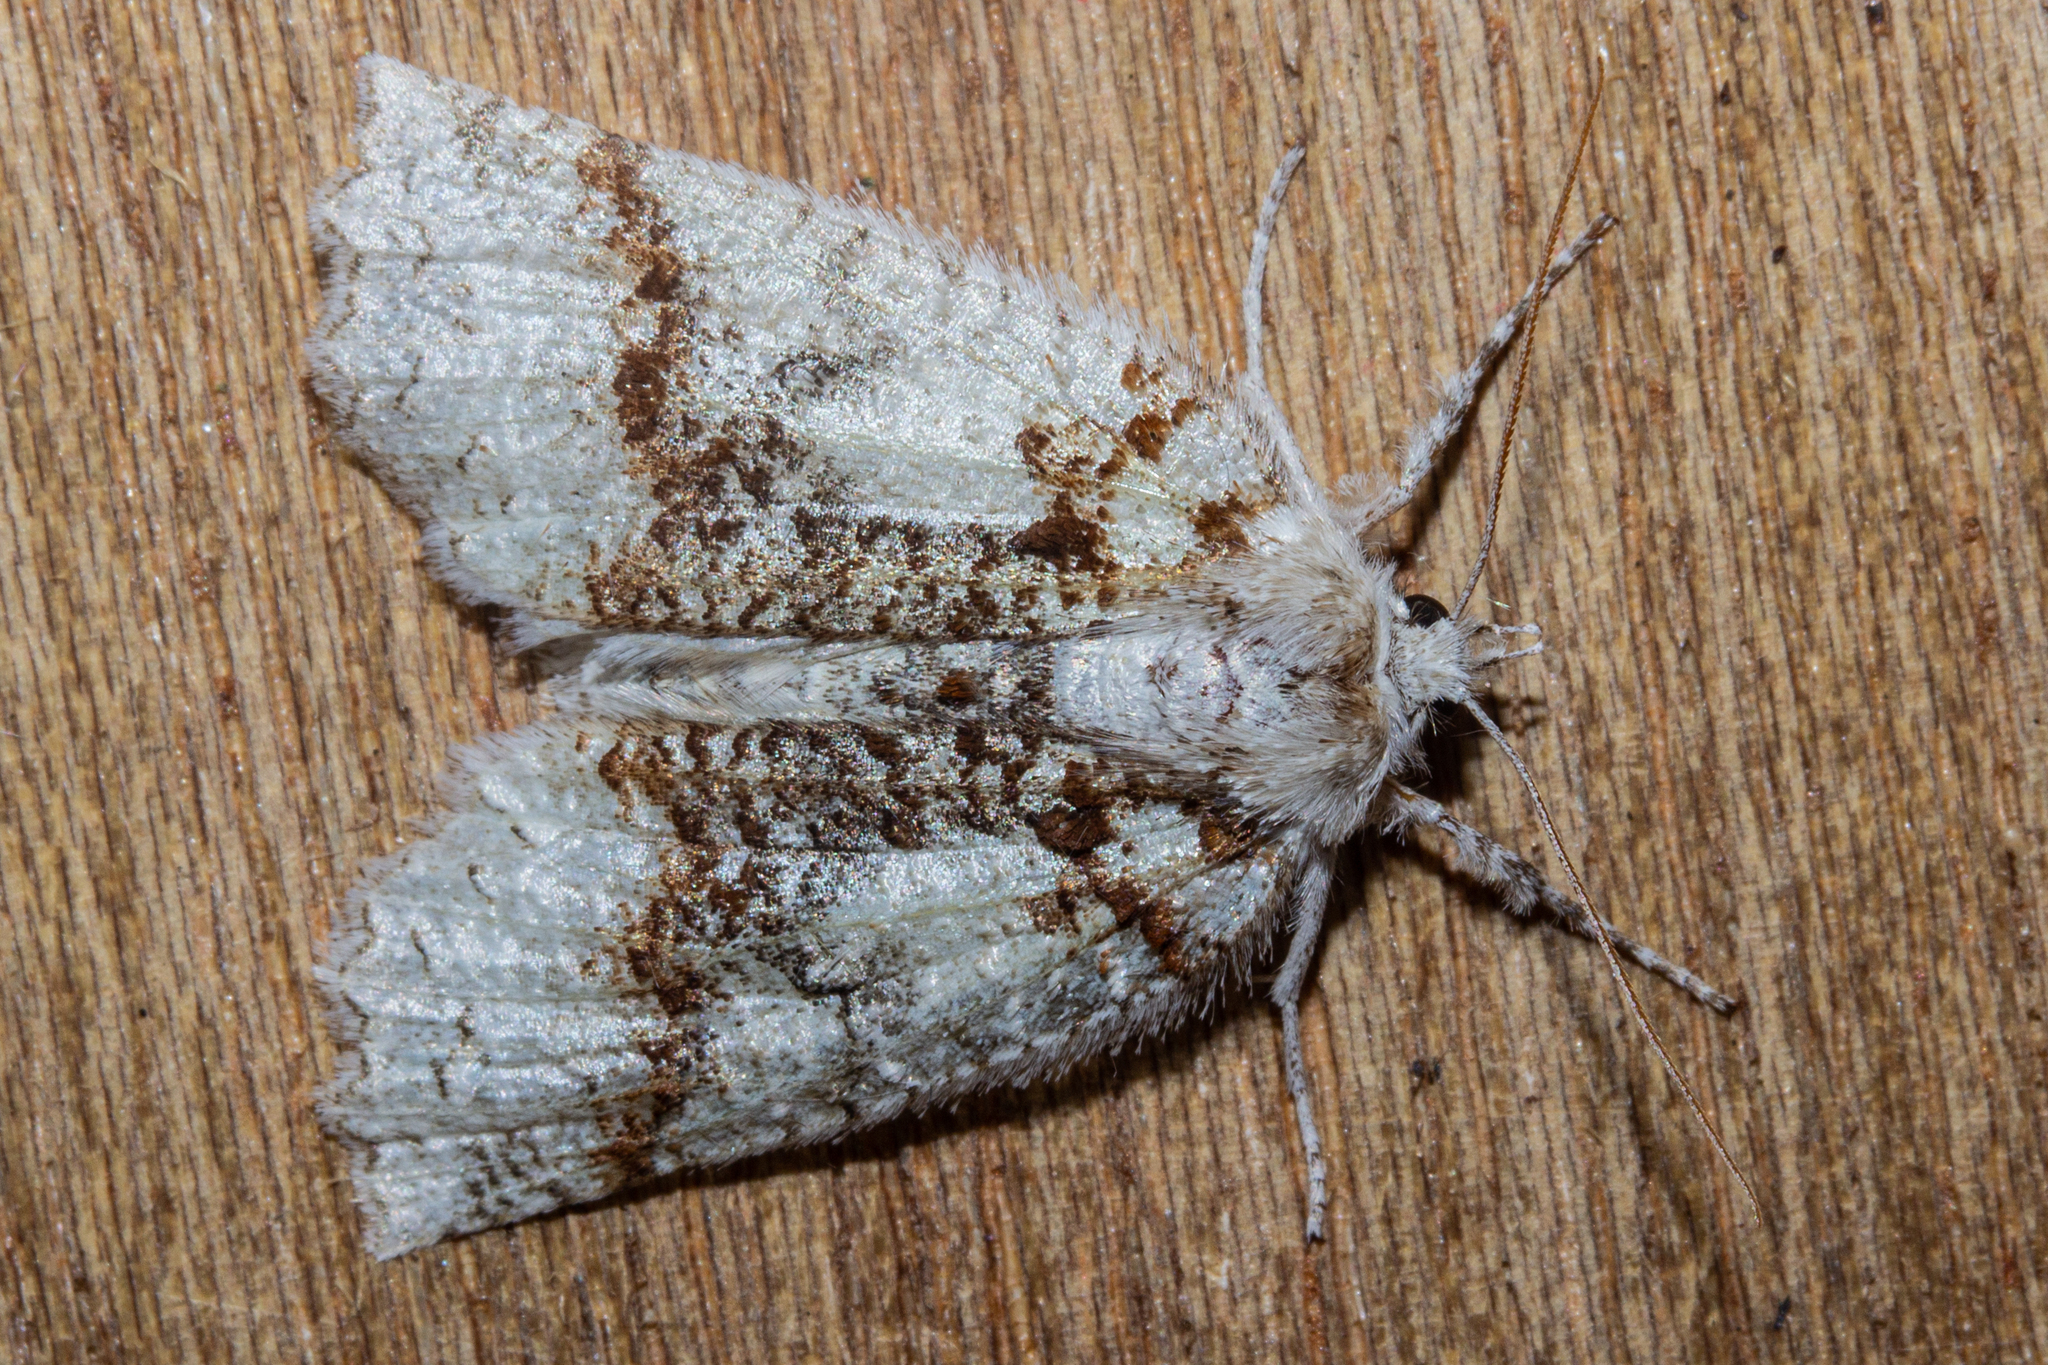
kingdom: Animalia
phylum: Arthropoda
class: Insecta
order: Lepidoptera
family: Geometridae
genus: Declana
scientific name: Declana floccosa
